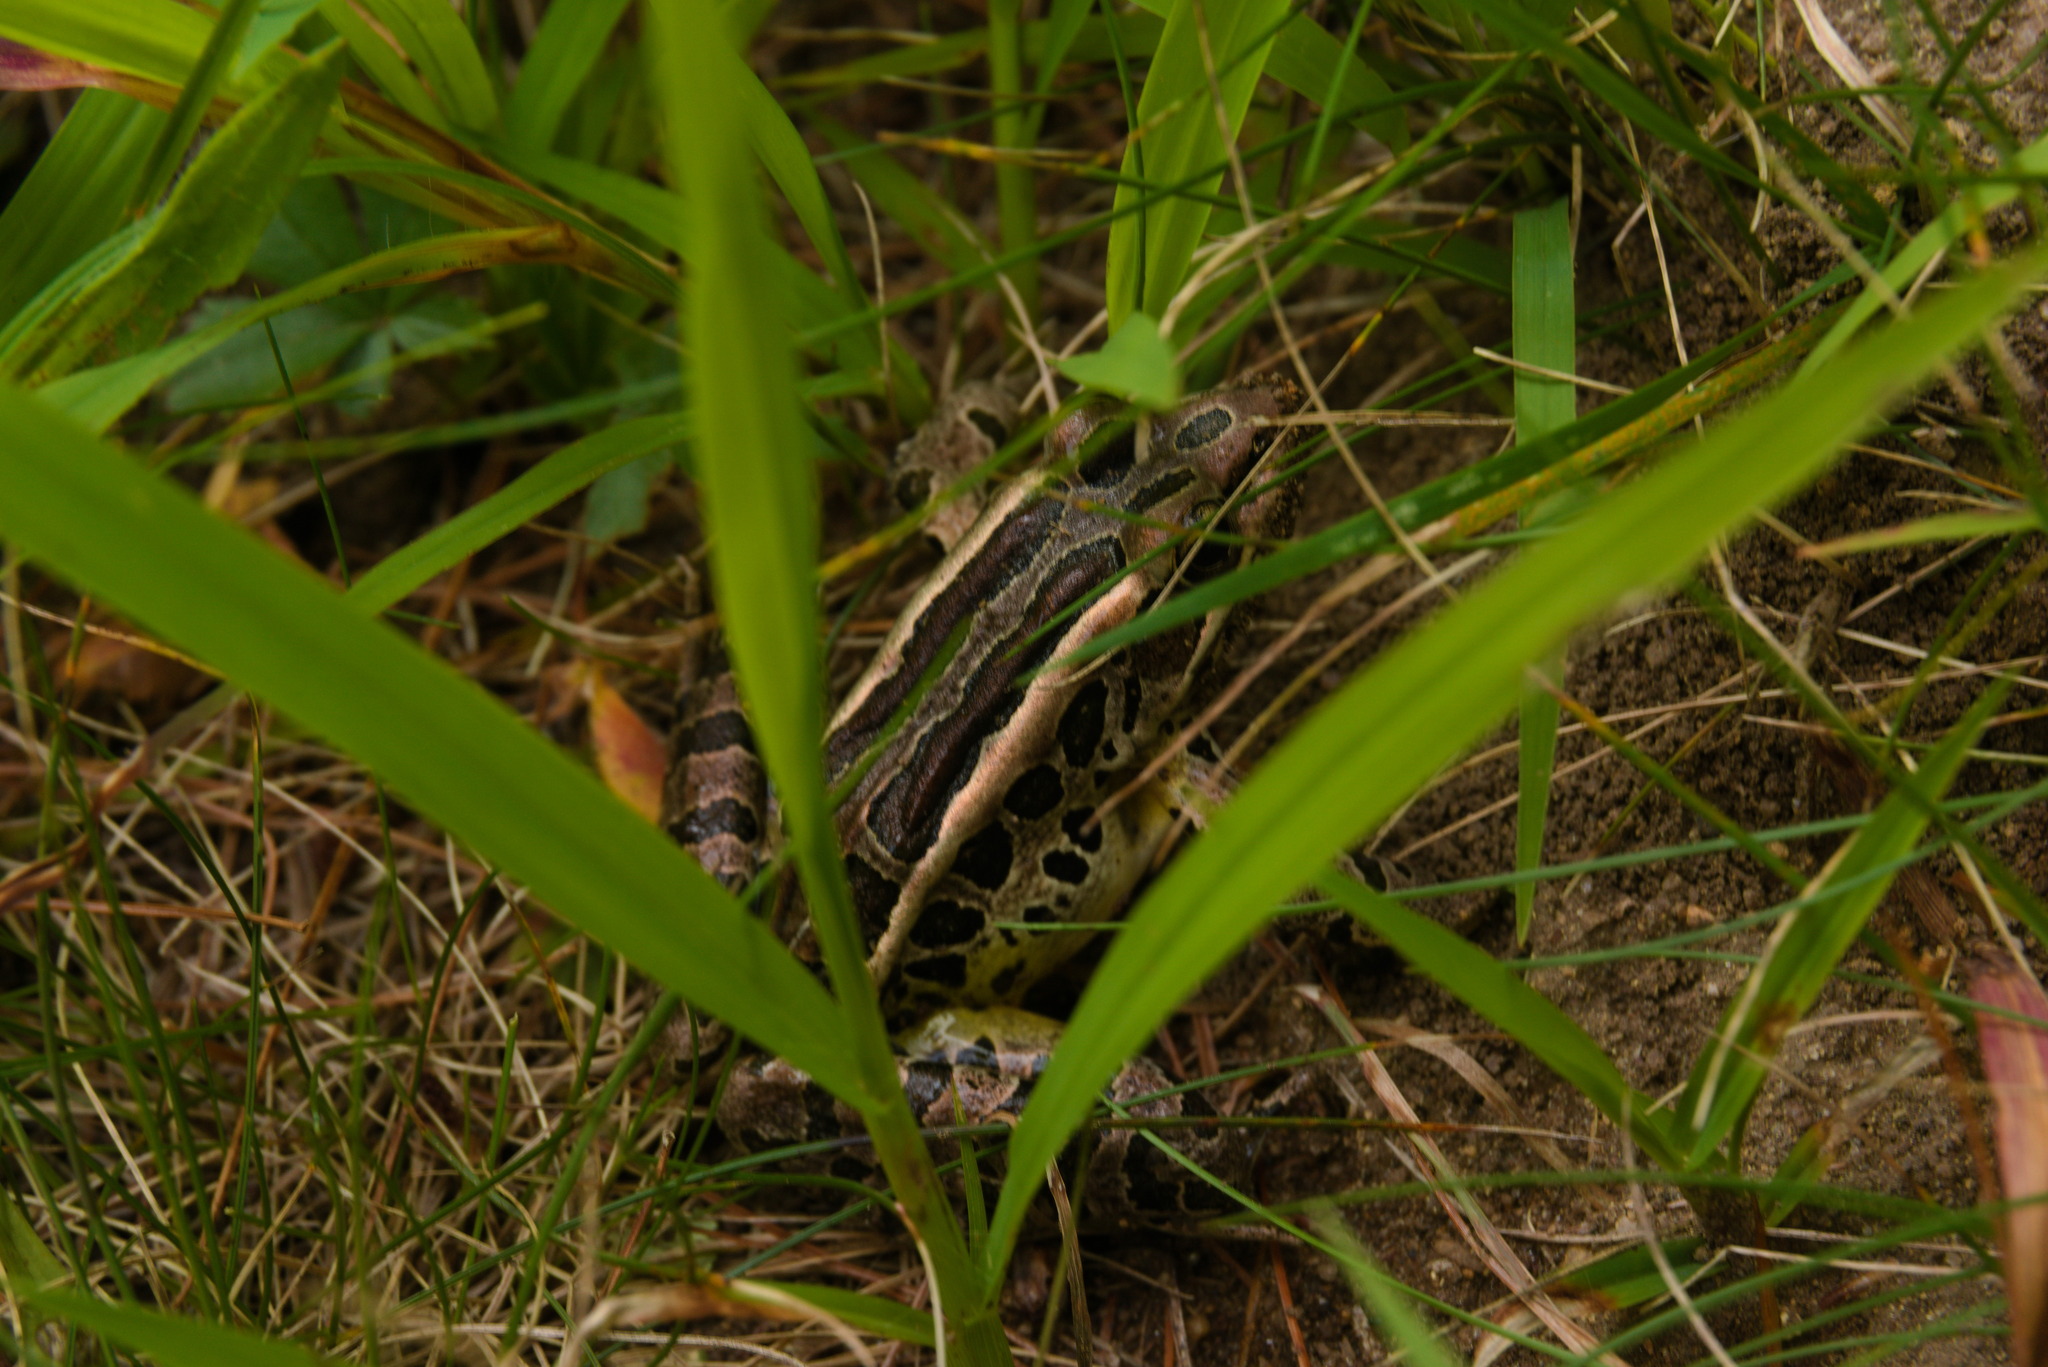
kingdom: Animalia
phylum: Chordata
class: Amphibia
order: Anura
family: Ranidae
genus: Lithobates
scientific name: Lithobates palustris
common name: Pickerel frog
